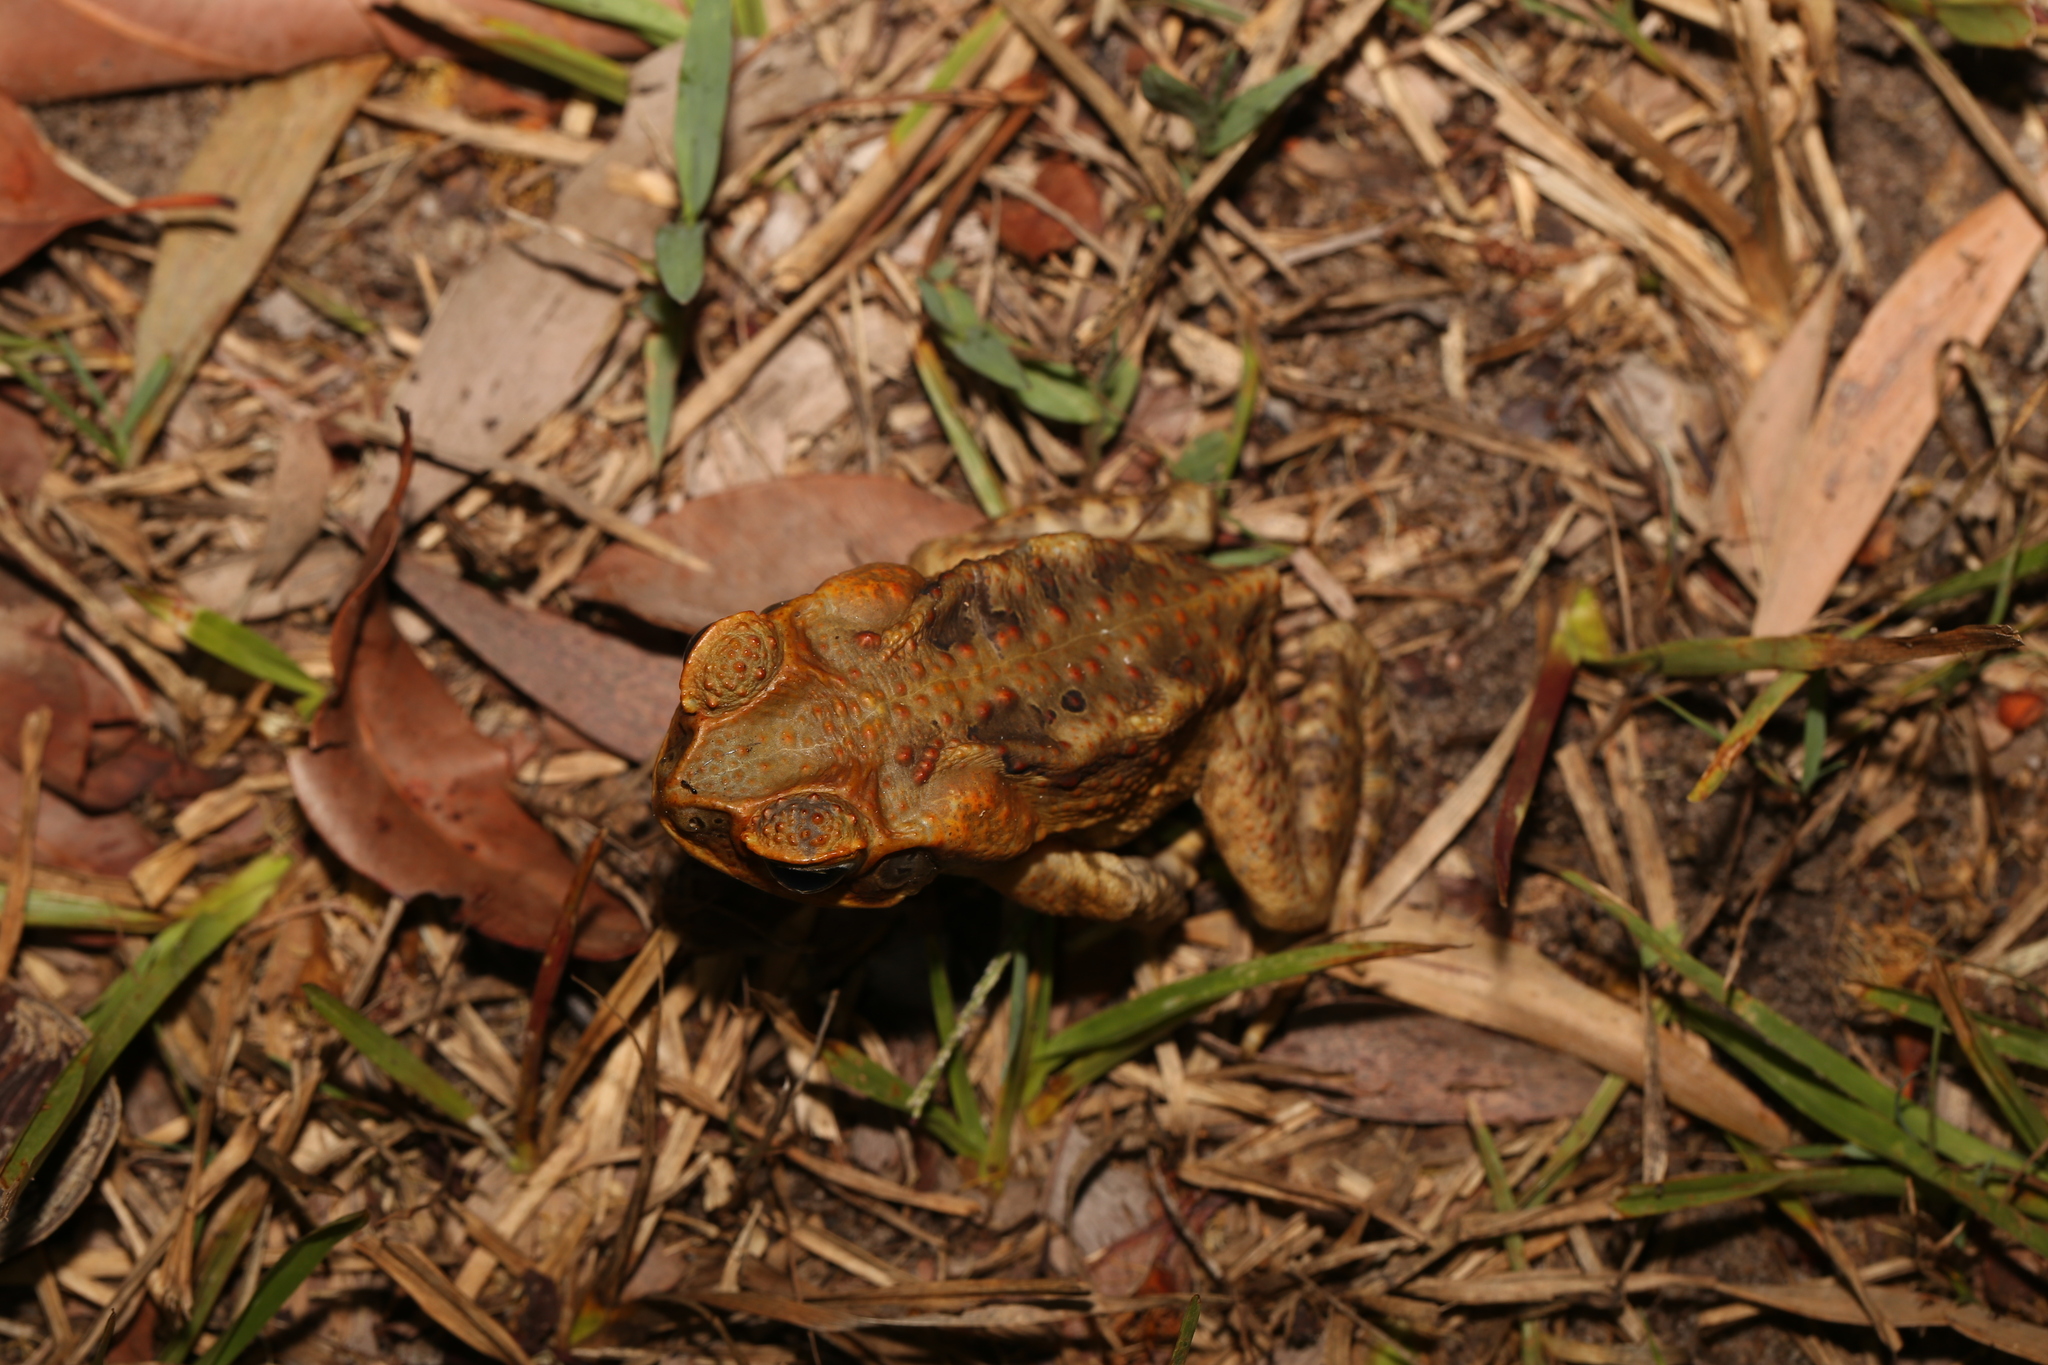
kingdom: Animalia
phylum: Chordata
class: Amphibia
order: Anura
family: Bufonidae
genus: Rhinella
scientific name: Rhinella marina
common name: Cane toad
